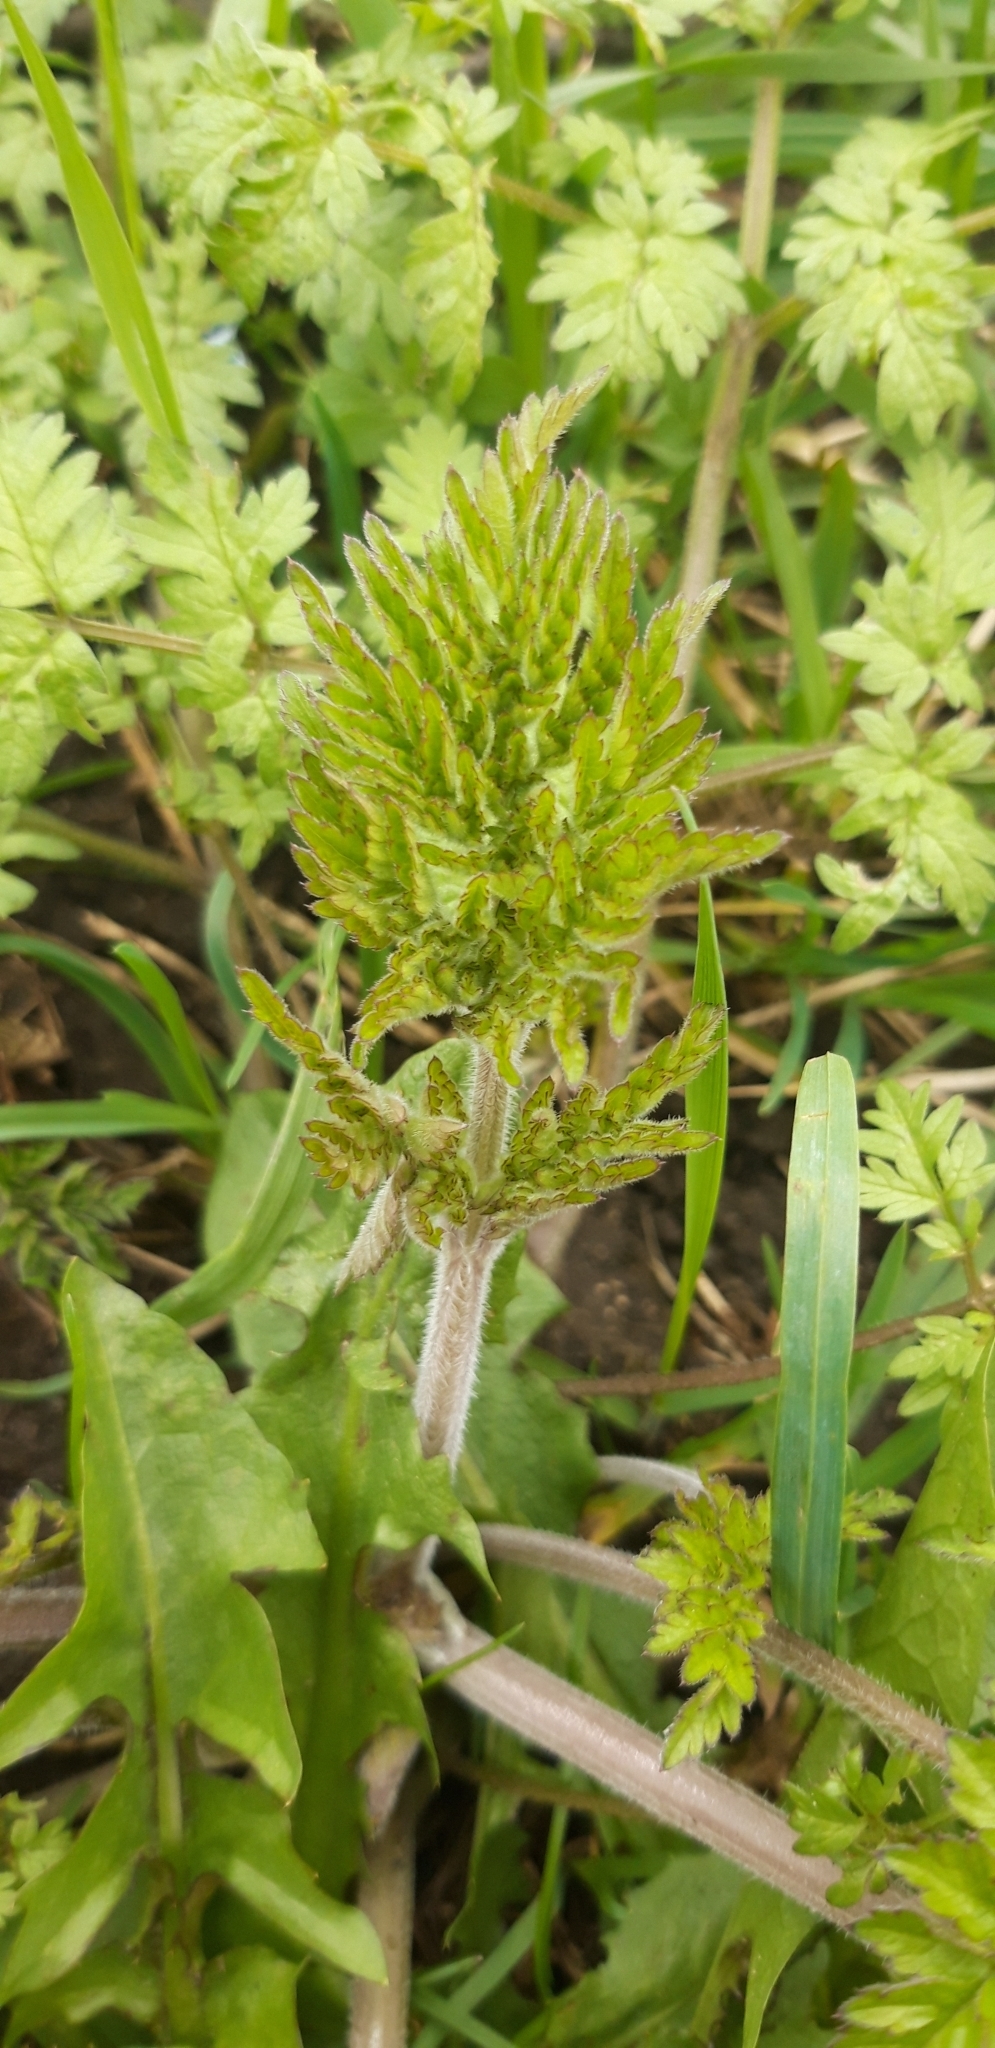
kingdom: Plantae
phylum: Tracheophyta
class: Magnoliopsida
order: Apiales
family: Apiaceae
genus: Anthriscus
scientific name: Anthriscus sylvestris
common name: Cow parsley
